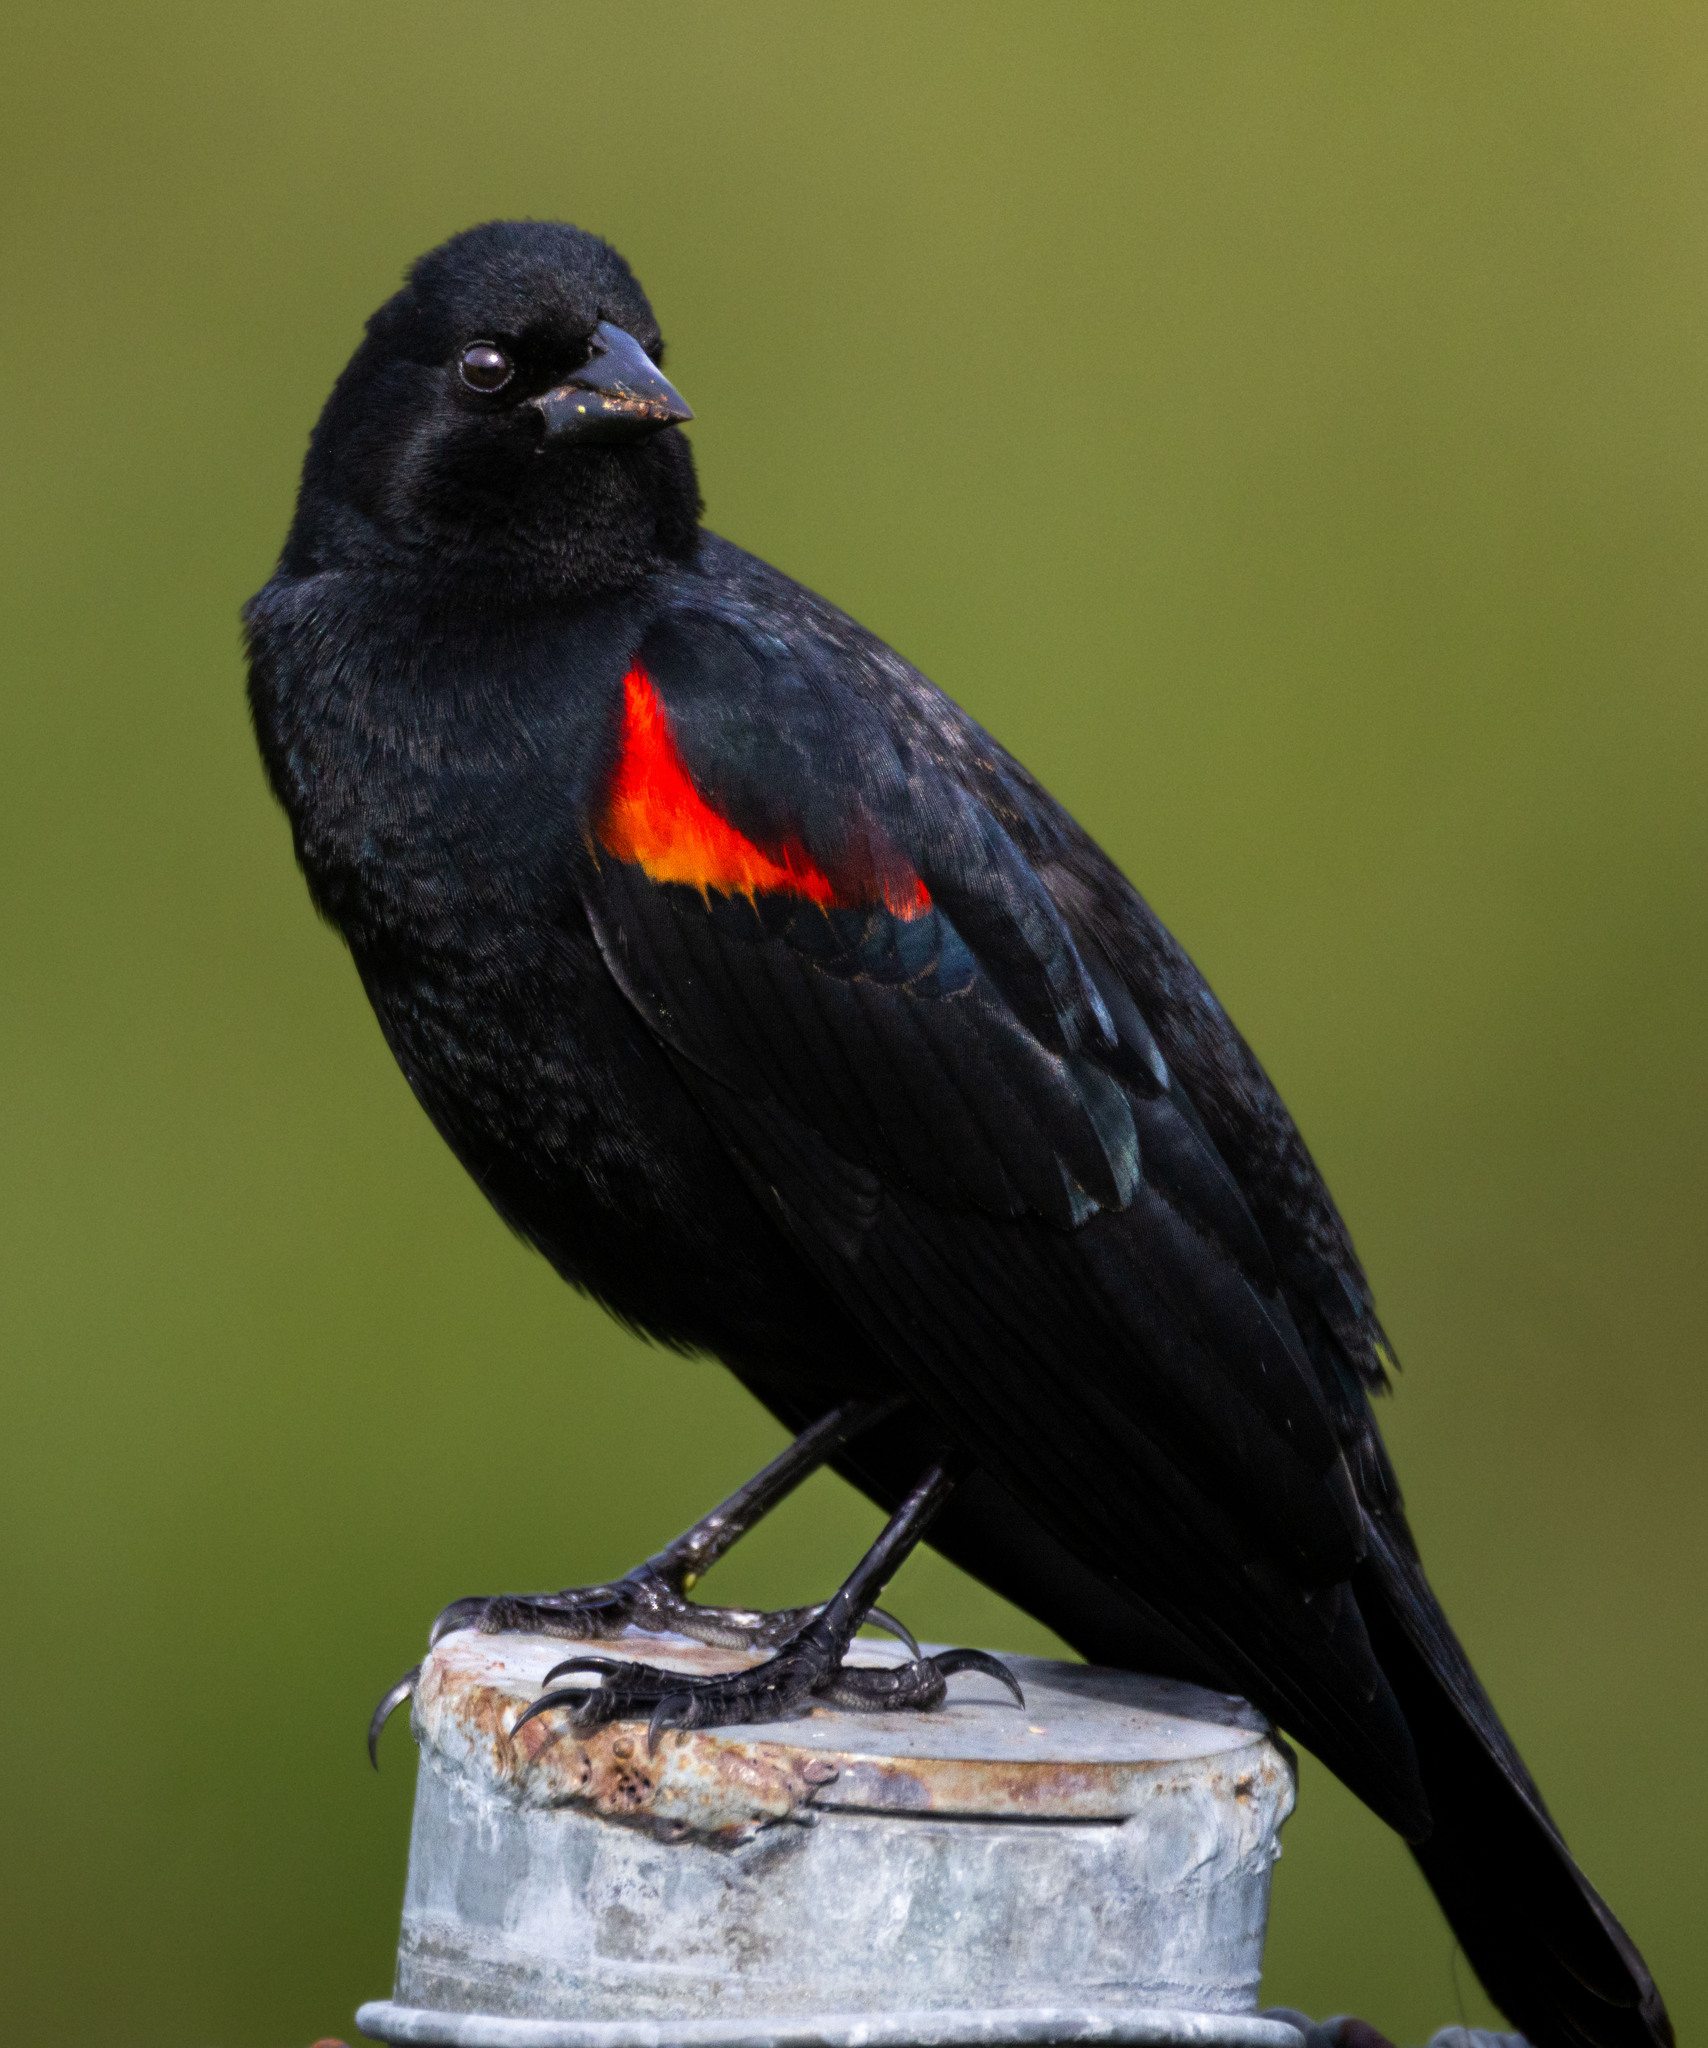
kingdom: Animalia
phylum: Chordata
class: Aves
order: Passeriformes
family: Icteridae
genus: Agelaius
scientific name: Agelaius phoeniceus
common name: Red-winged blackbird
